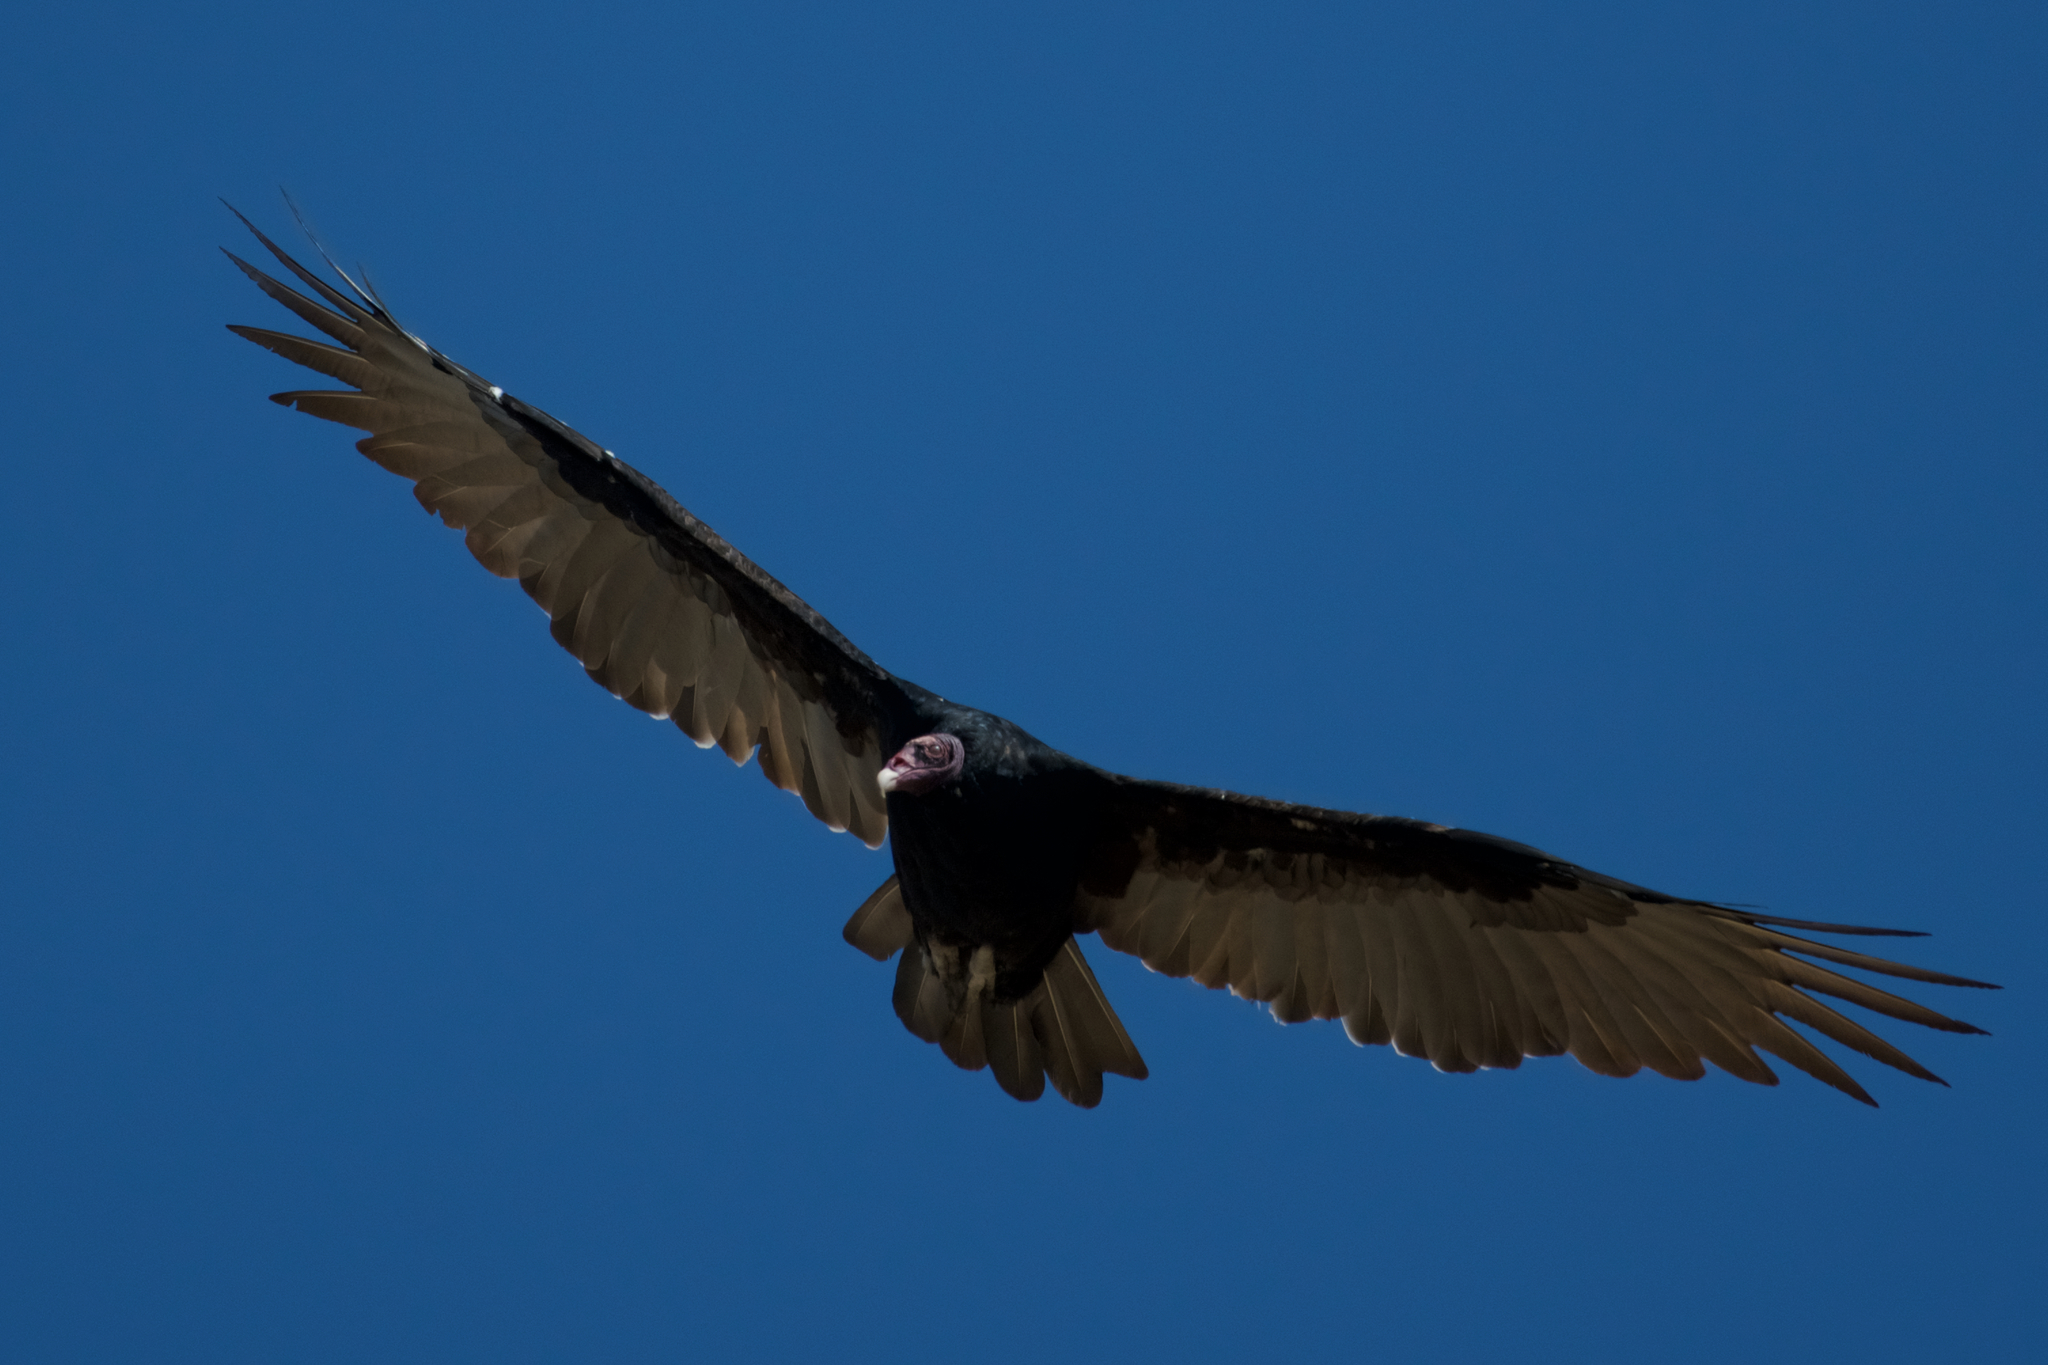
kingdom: Animalia
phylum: Chordata
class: Aves
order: Accipitriformes
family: Cathartidae
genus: Cathartes
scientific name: Cathartes aura
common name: Turkey vulture
